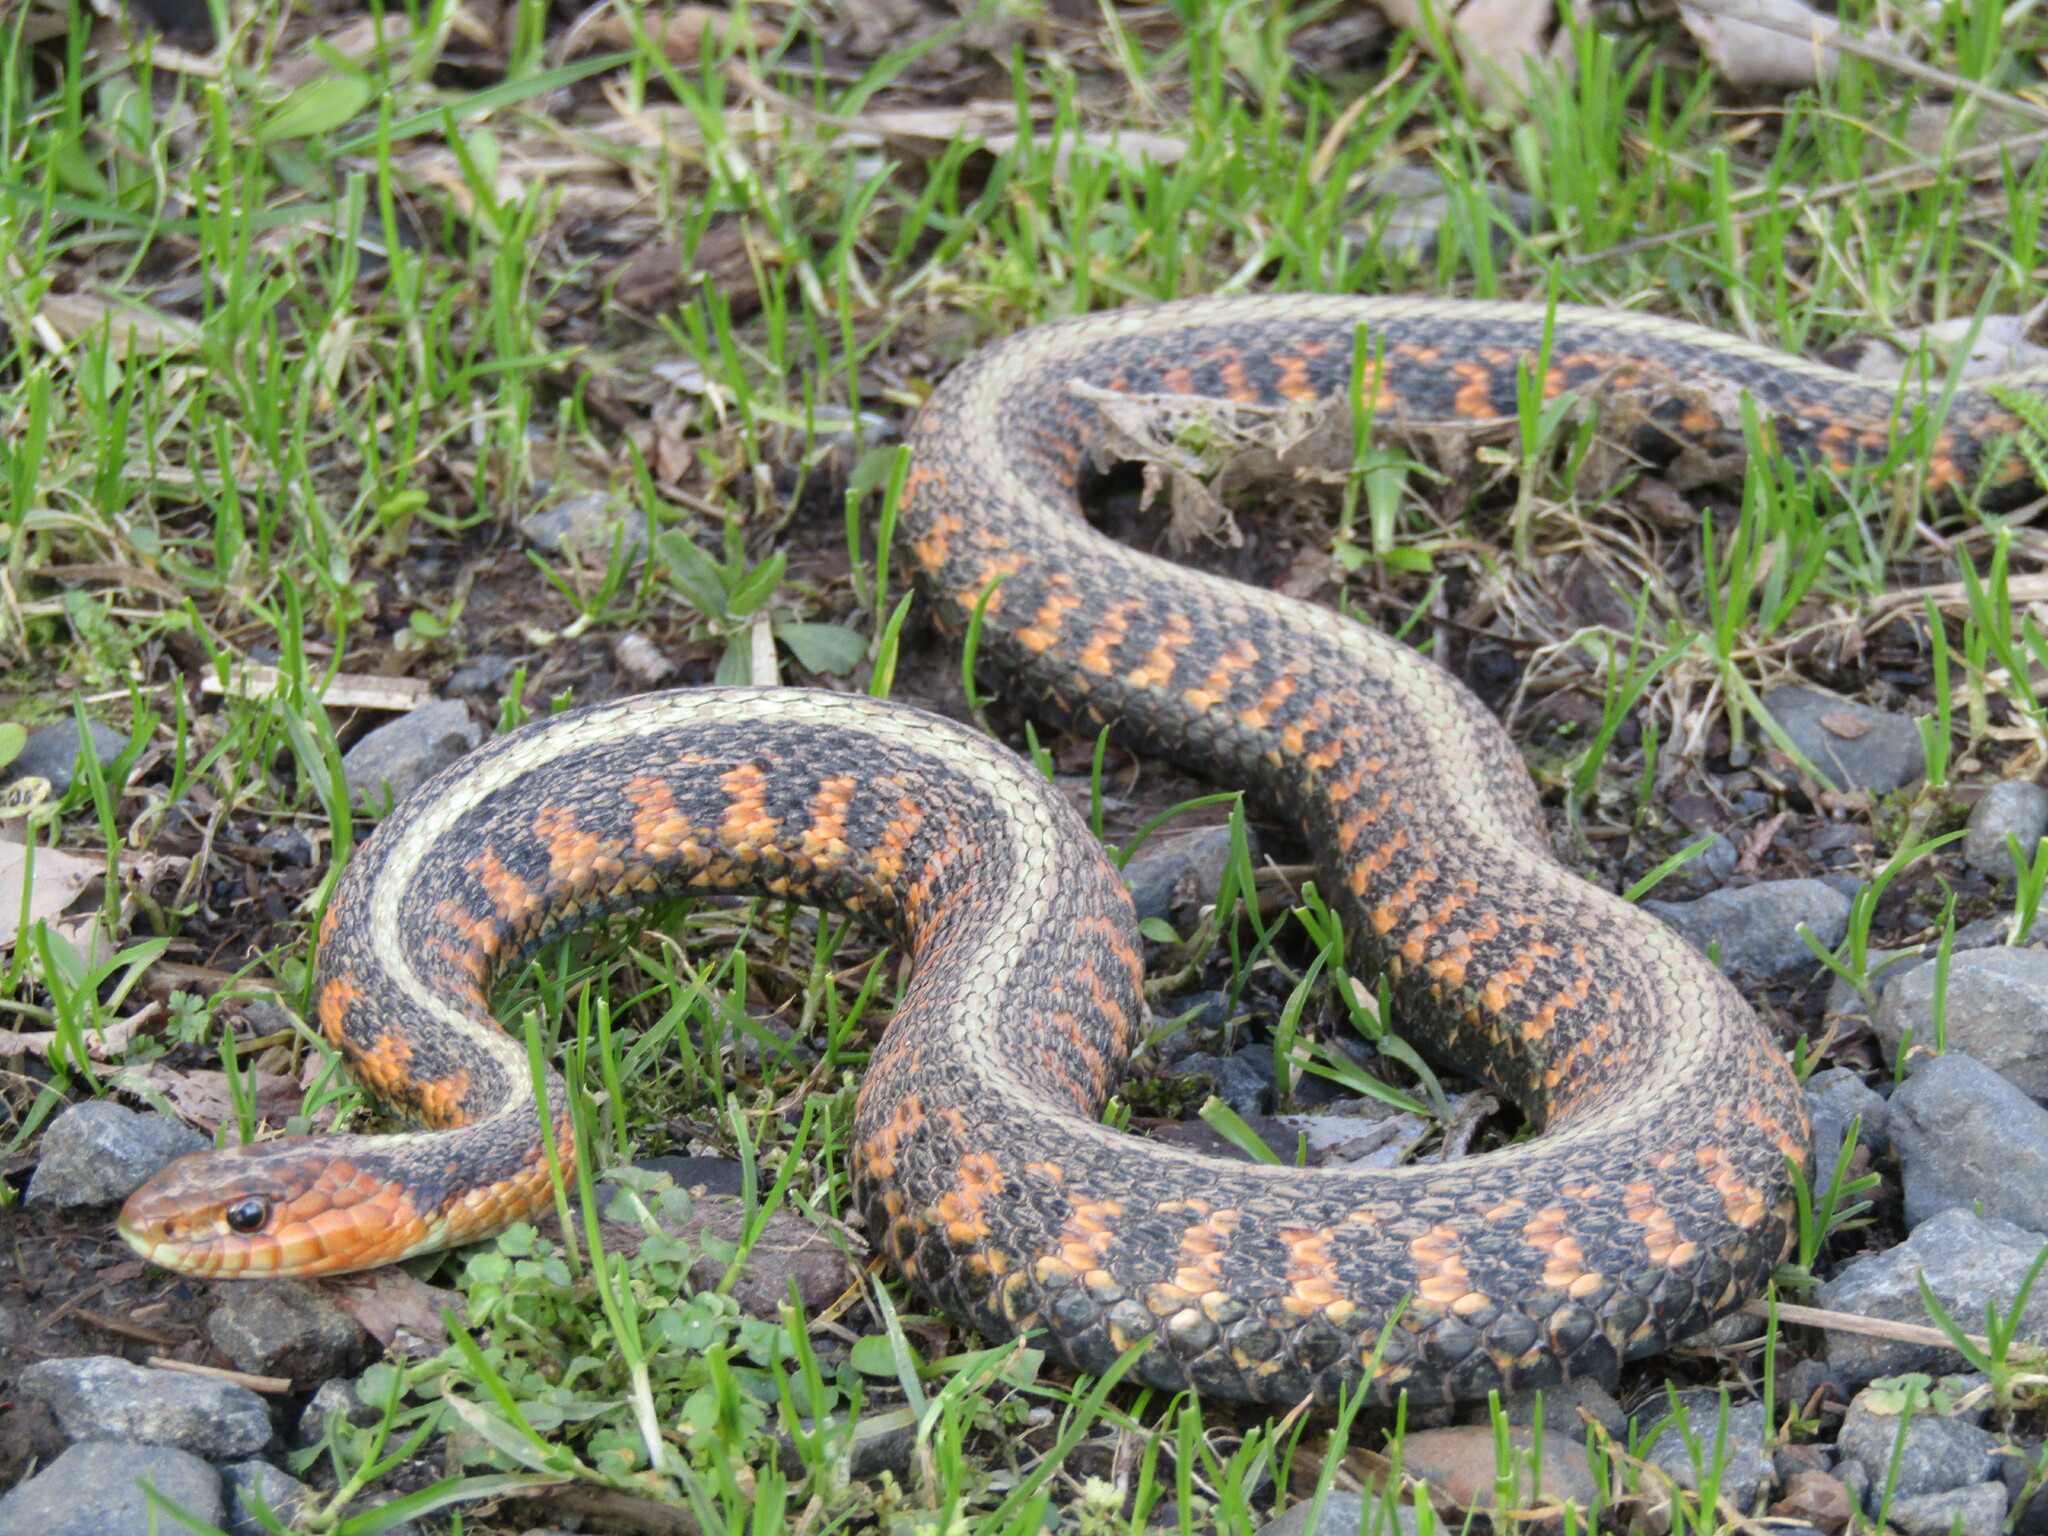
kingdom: Animalia
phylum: Chordata
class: Squamata
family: Colubridae
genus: Thamnophis
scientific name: Thamnophis sirtalis
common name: Common garter snake
